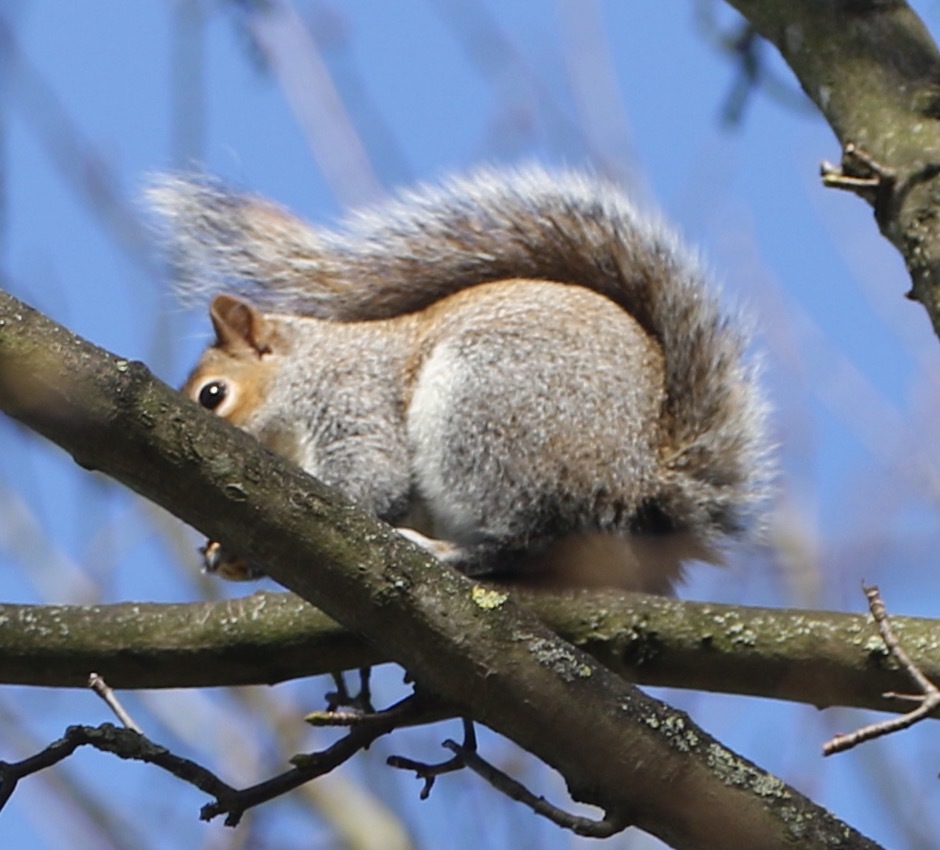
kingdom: Animalia
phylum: Chordata
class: Mammalia
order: Rodentia
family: Sciuridae
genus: Sciurus
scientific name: Sciurus carolinensis
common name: Eastern gray squirrel
